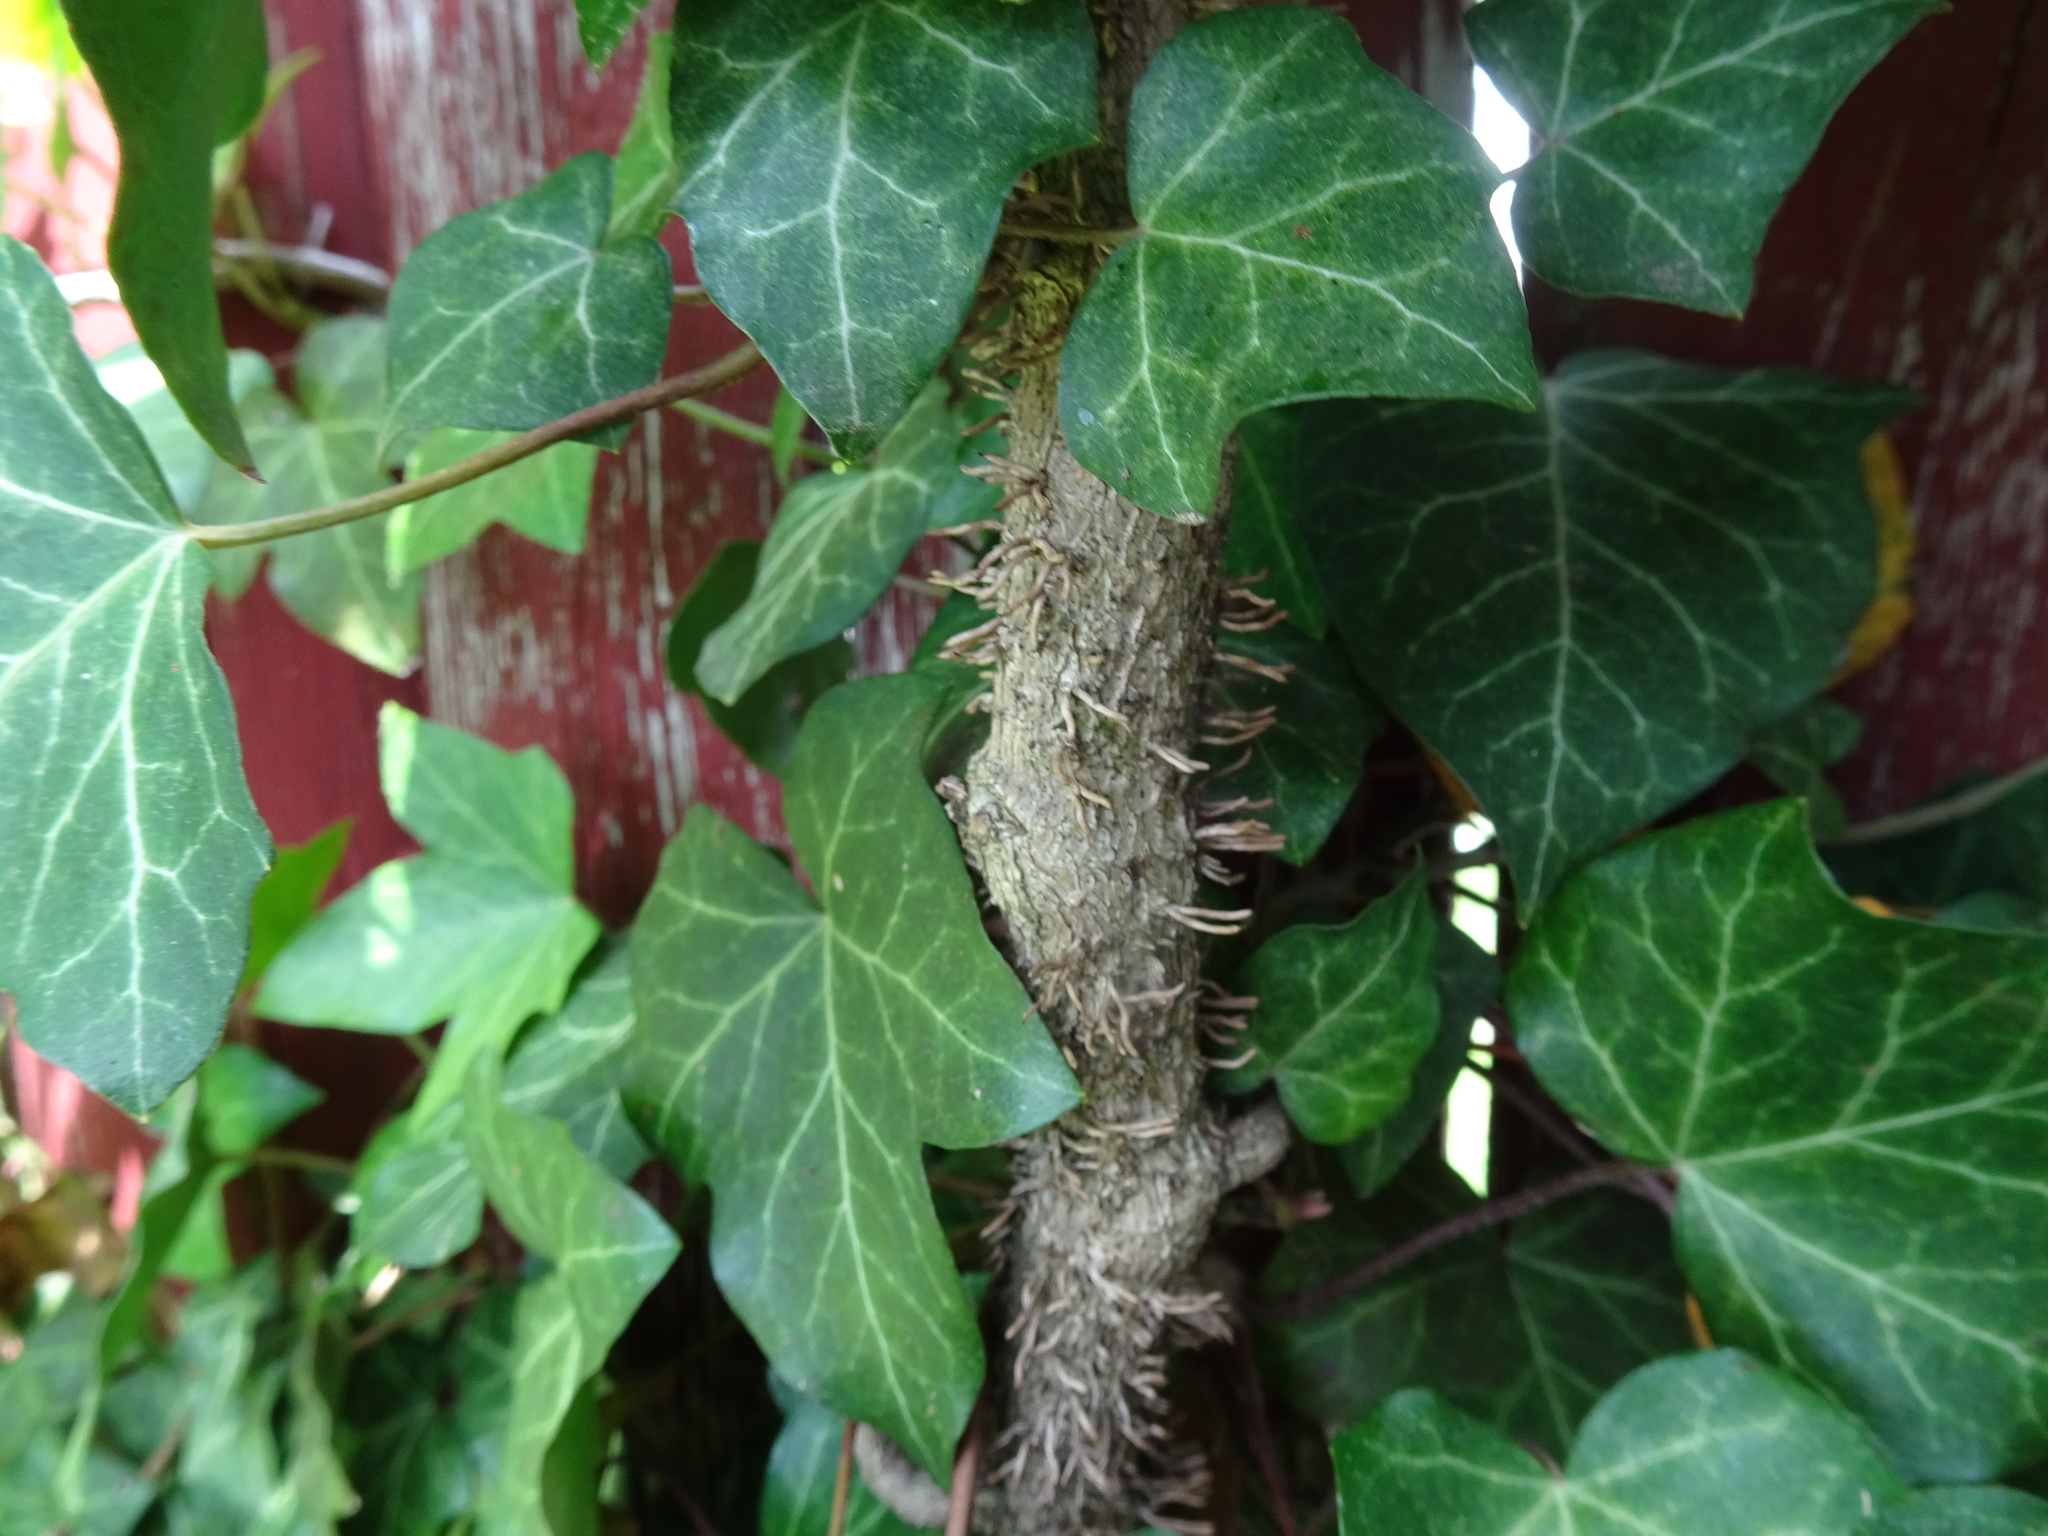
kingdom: Plantae
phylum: Tracheophyta
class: Magnoliopsida
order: Apiales
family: Araliaceae
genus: Hedera
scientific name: Hedera helix
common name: Ivy
